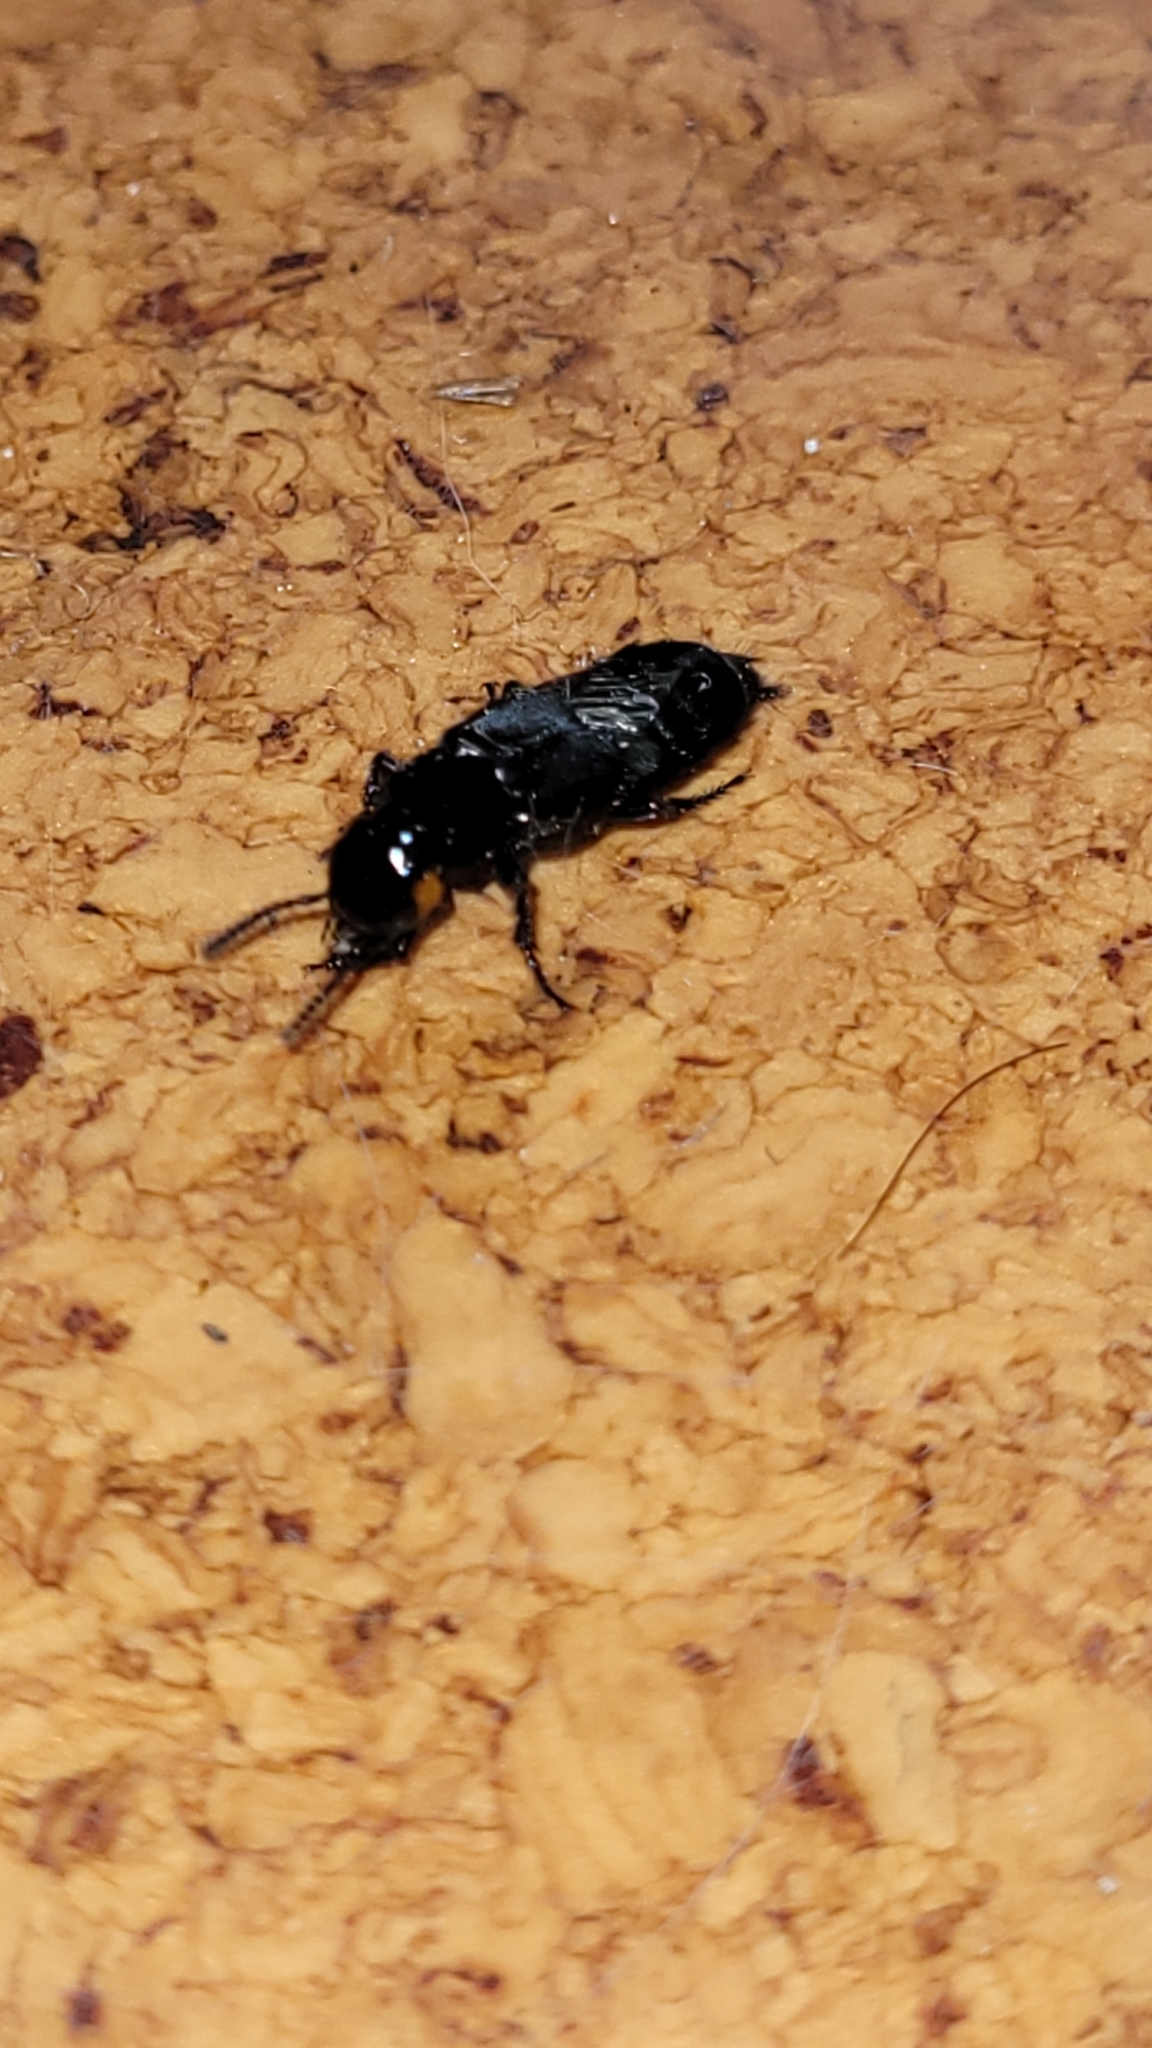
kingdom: Animalia
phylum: Arthropoda
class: Insecta
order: Coleoptera
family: Staphylinidae
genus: Creophilus
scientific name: Creophilus oculatus
